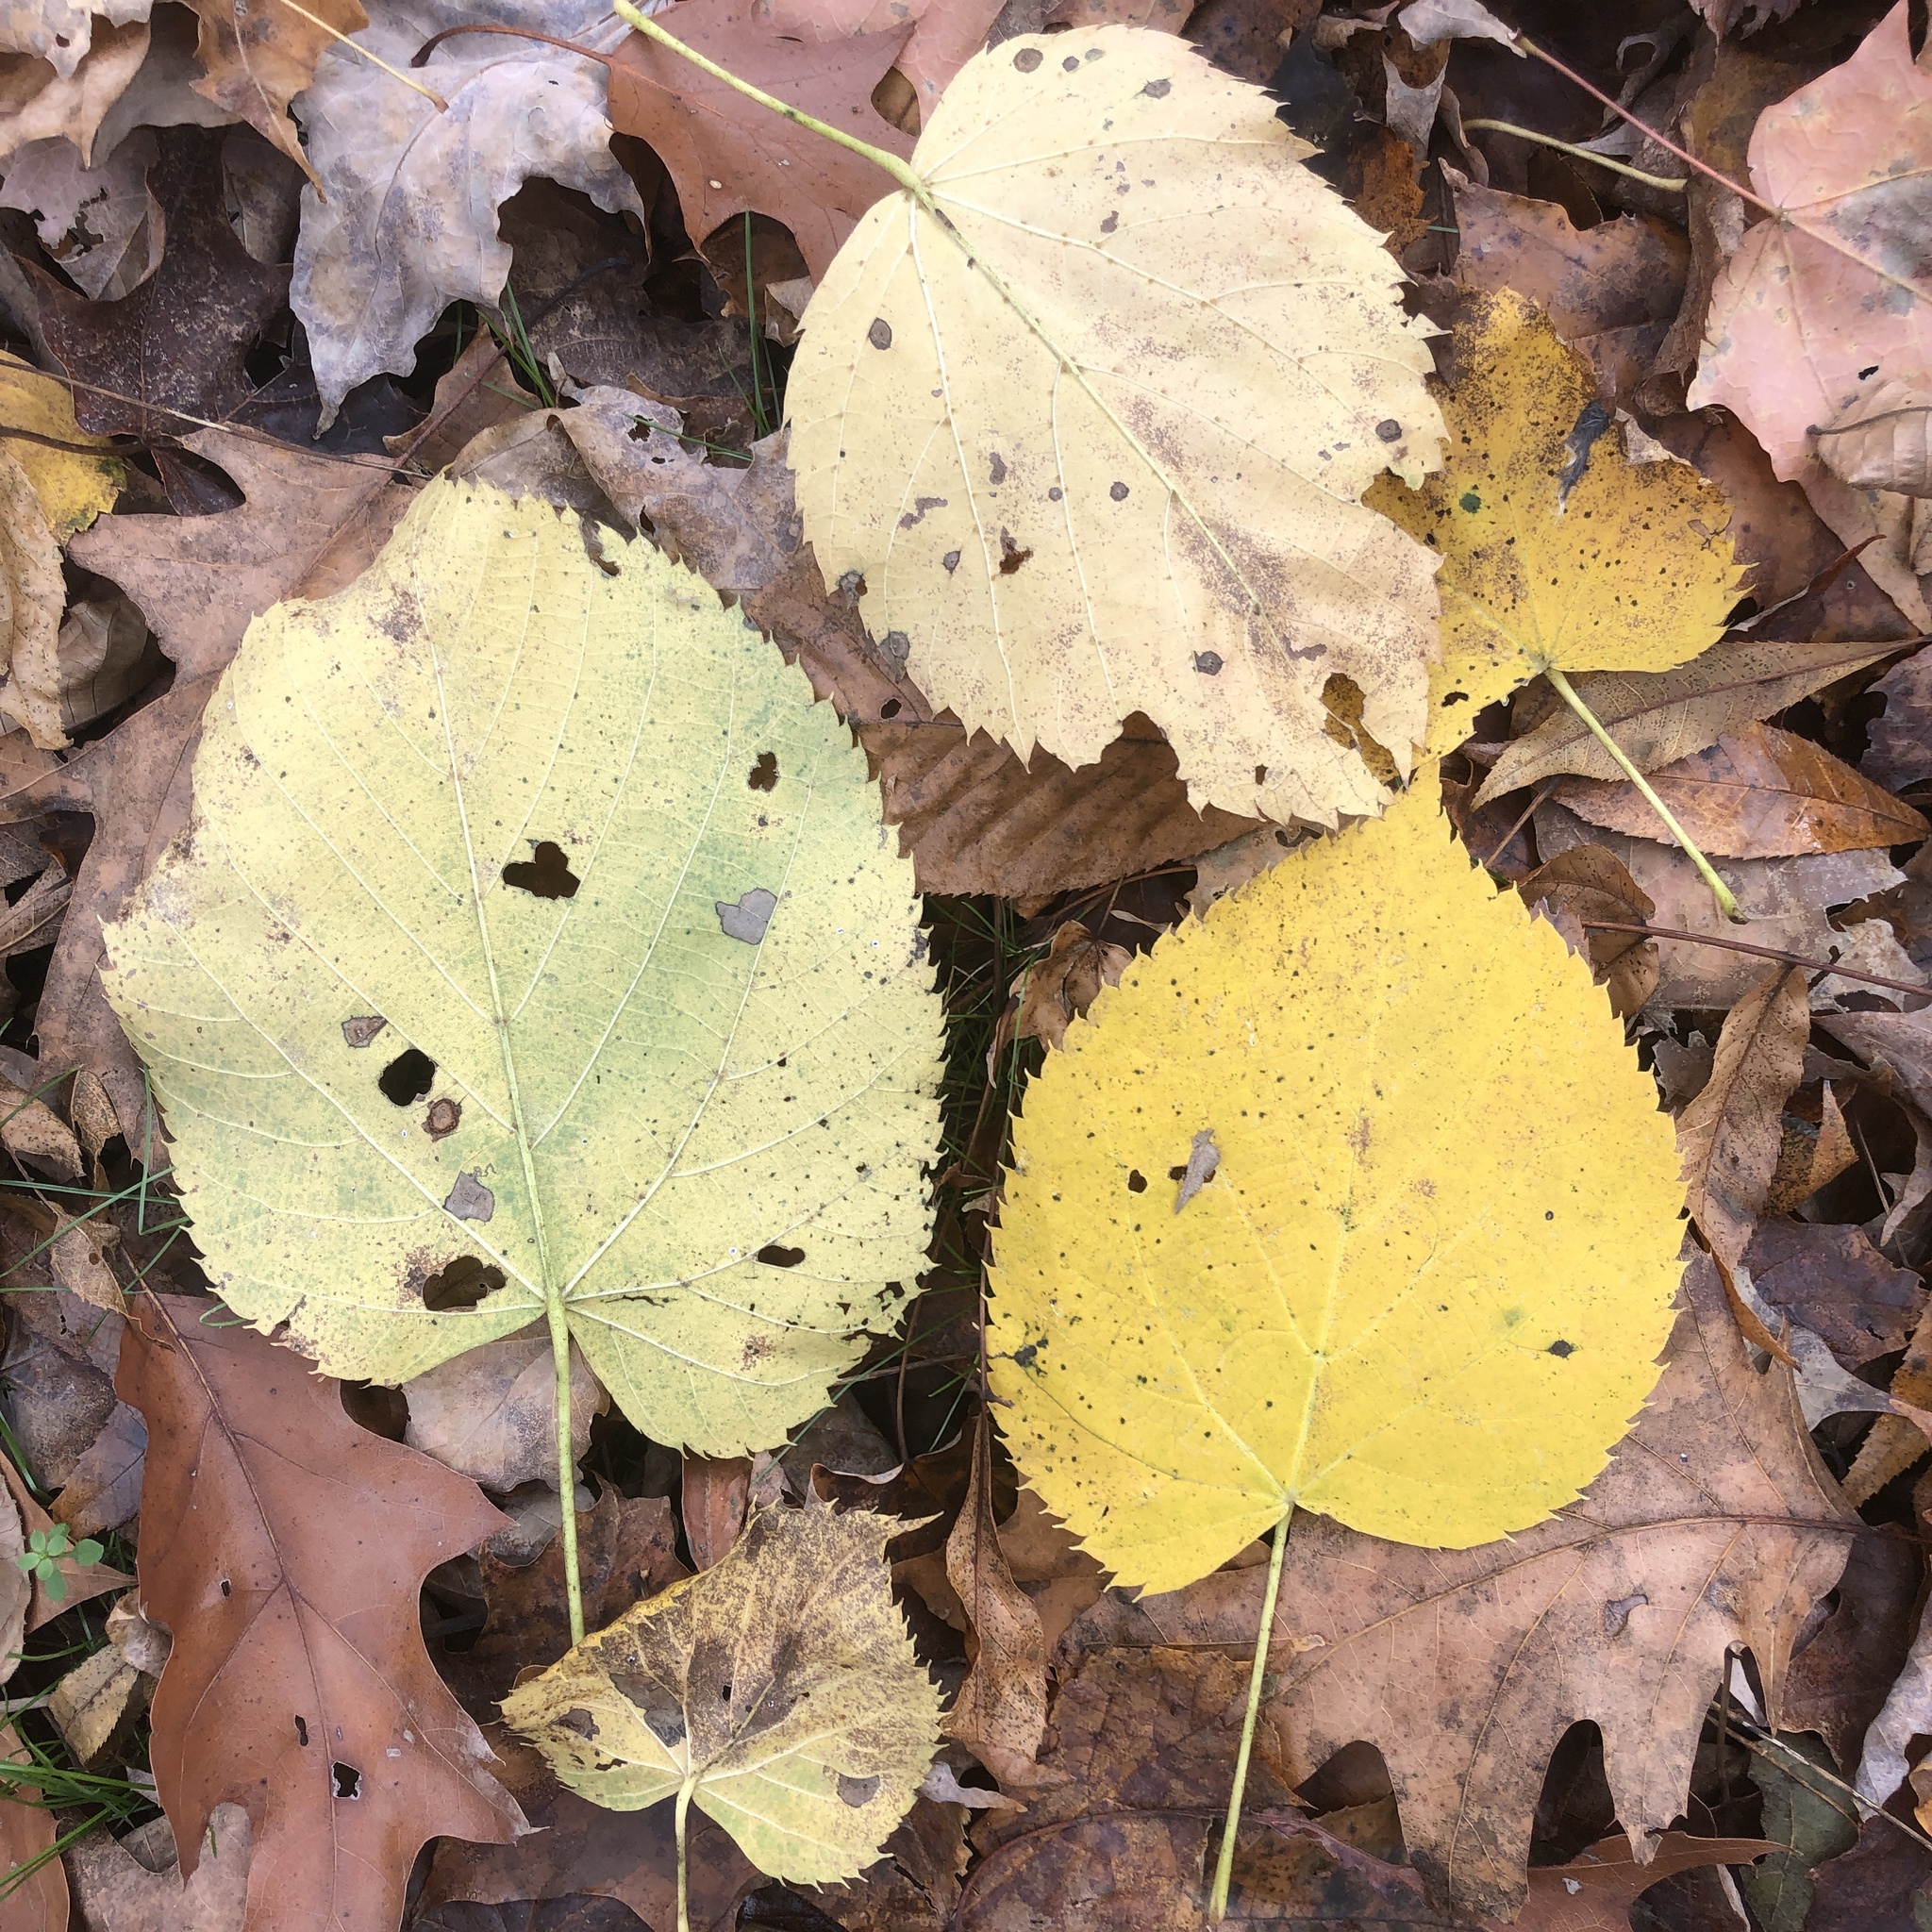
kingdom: Plantae
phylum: Tracheophyta
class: Magnoliopsida
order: Malvales
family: Malvaceae
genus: Tilia
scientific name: Tilia americana
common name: Basswood
